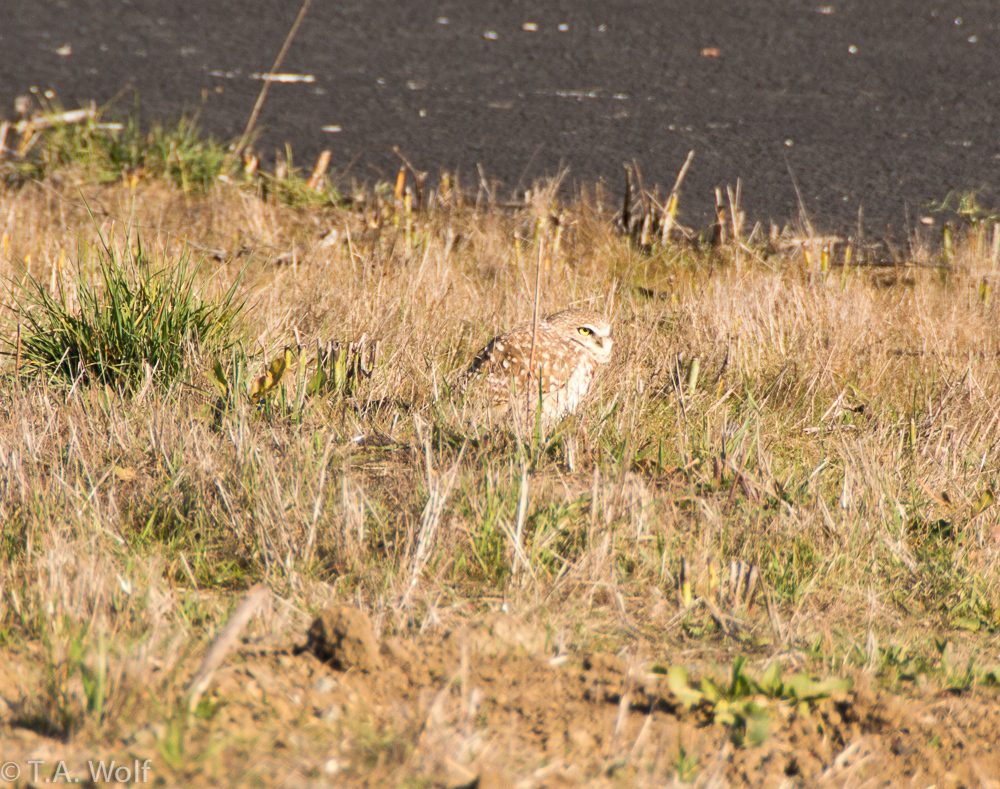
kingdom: Animalia
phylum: Chordata
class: Aves
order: Strigiformes
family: Strigidae
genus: Athene
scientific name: Athene cunicularia
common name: Burrowing owl
